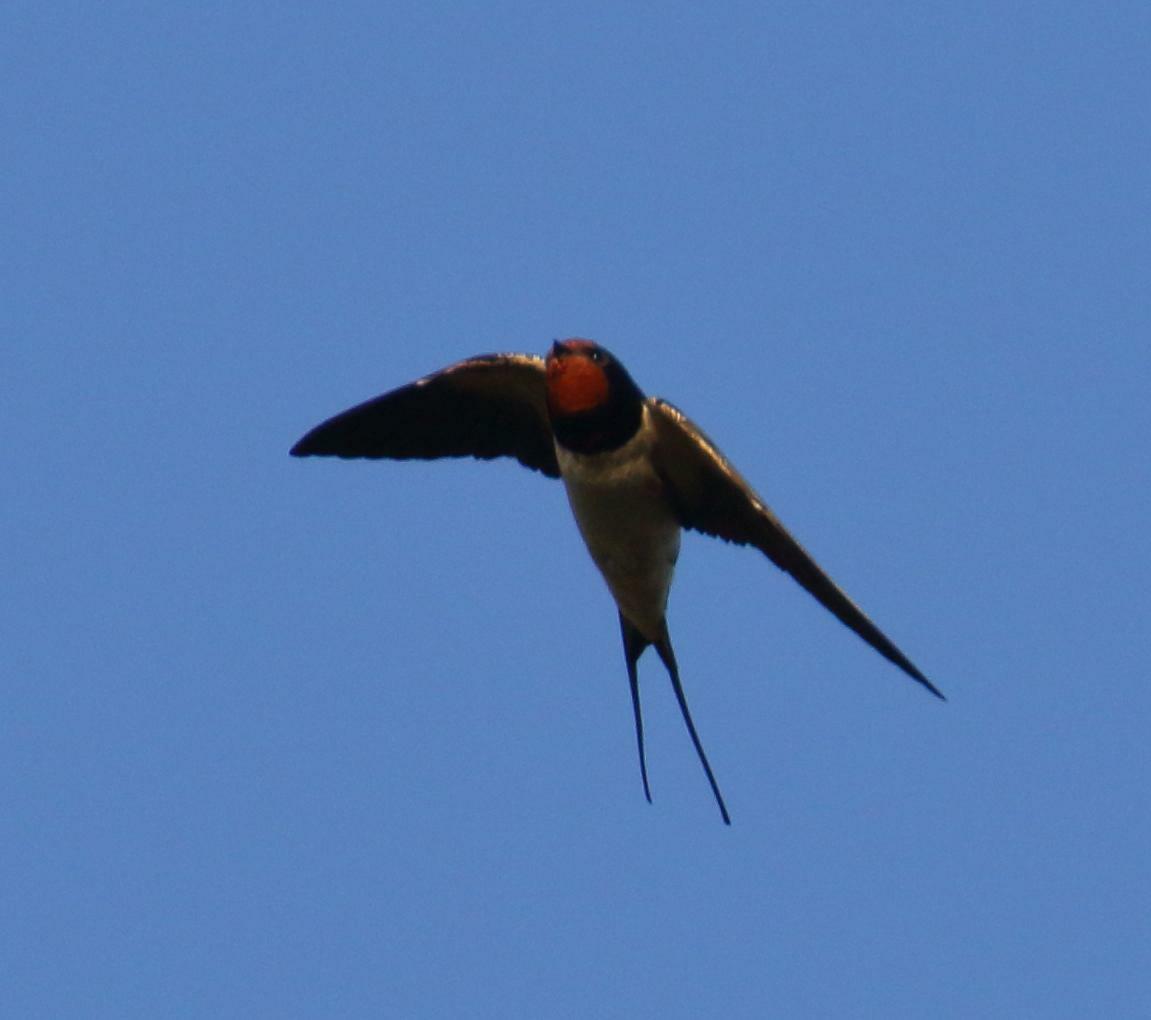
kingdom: Animalia
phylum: Chordata
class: Aves
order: Passeriformes
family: Hirundinidae
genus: Hirundo
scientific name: Hirundo rustica
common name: Barn swallow
